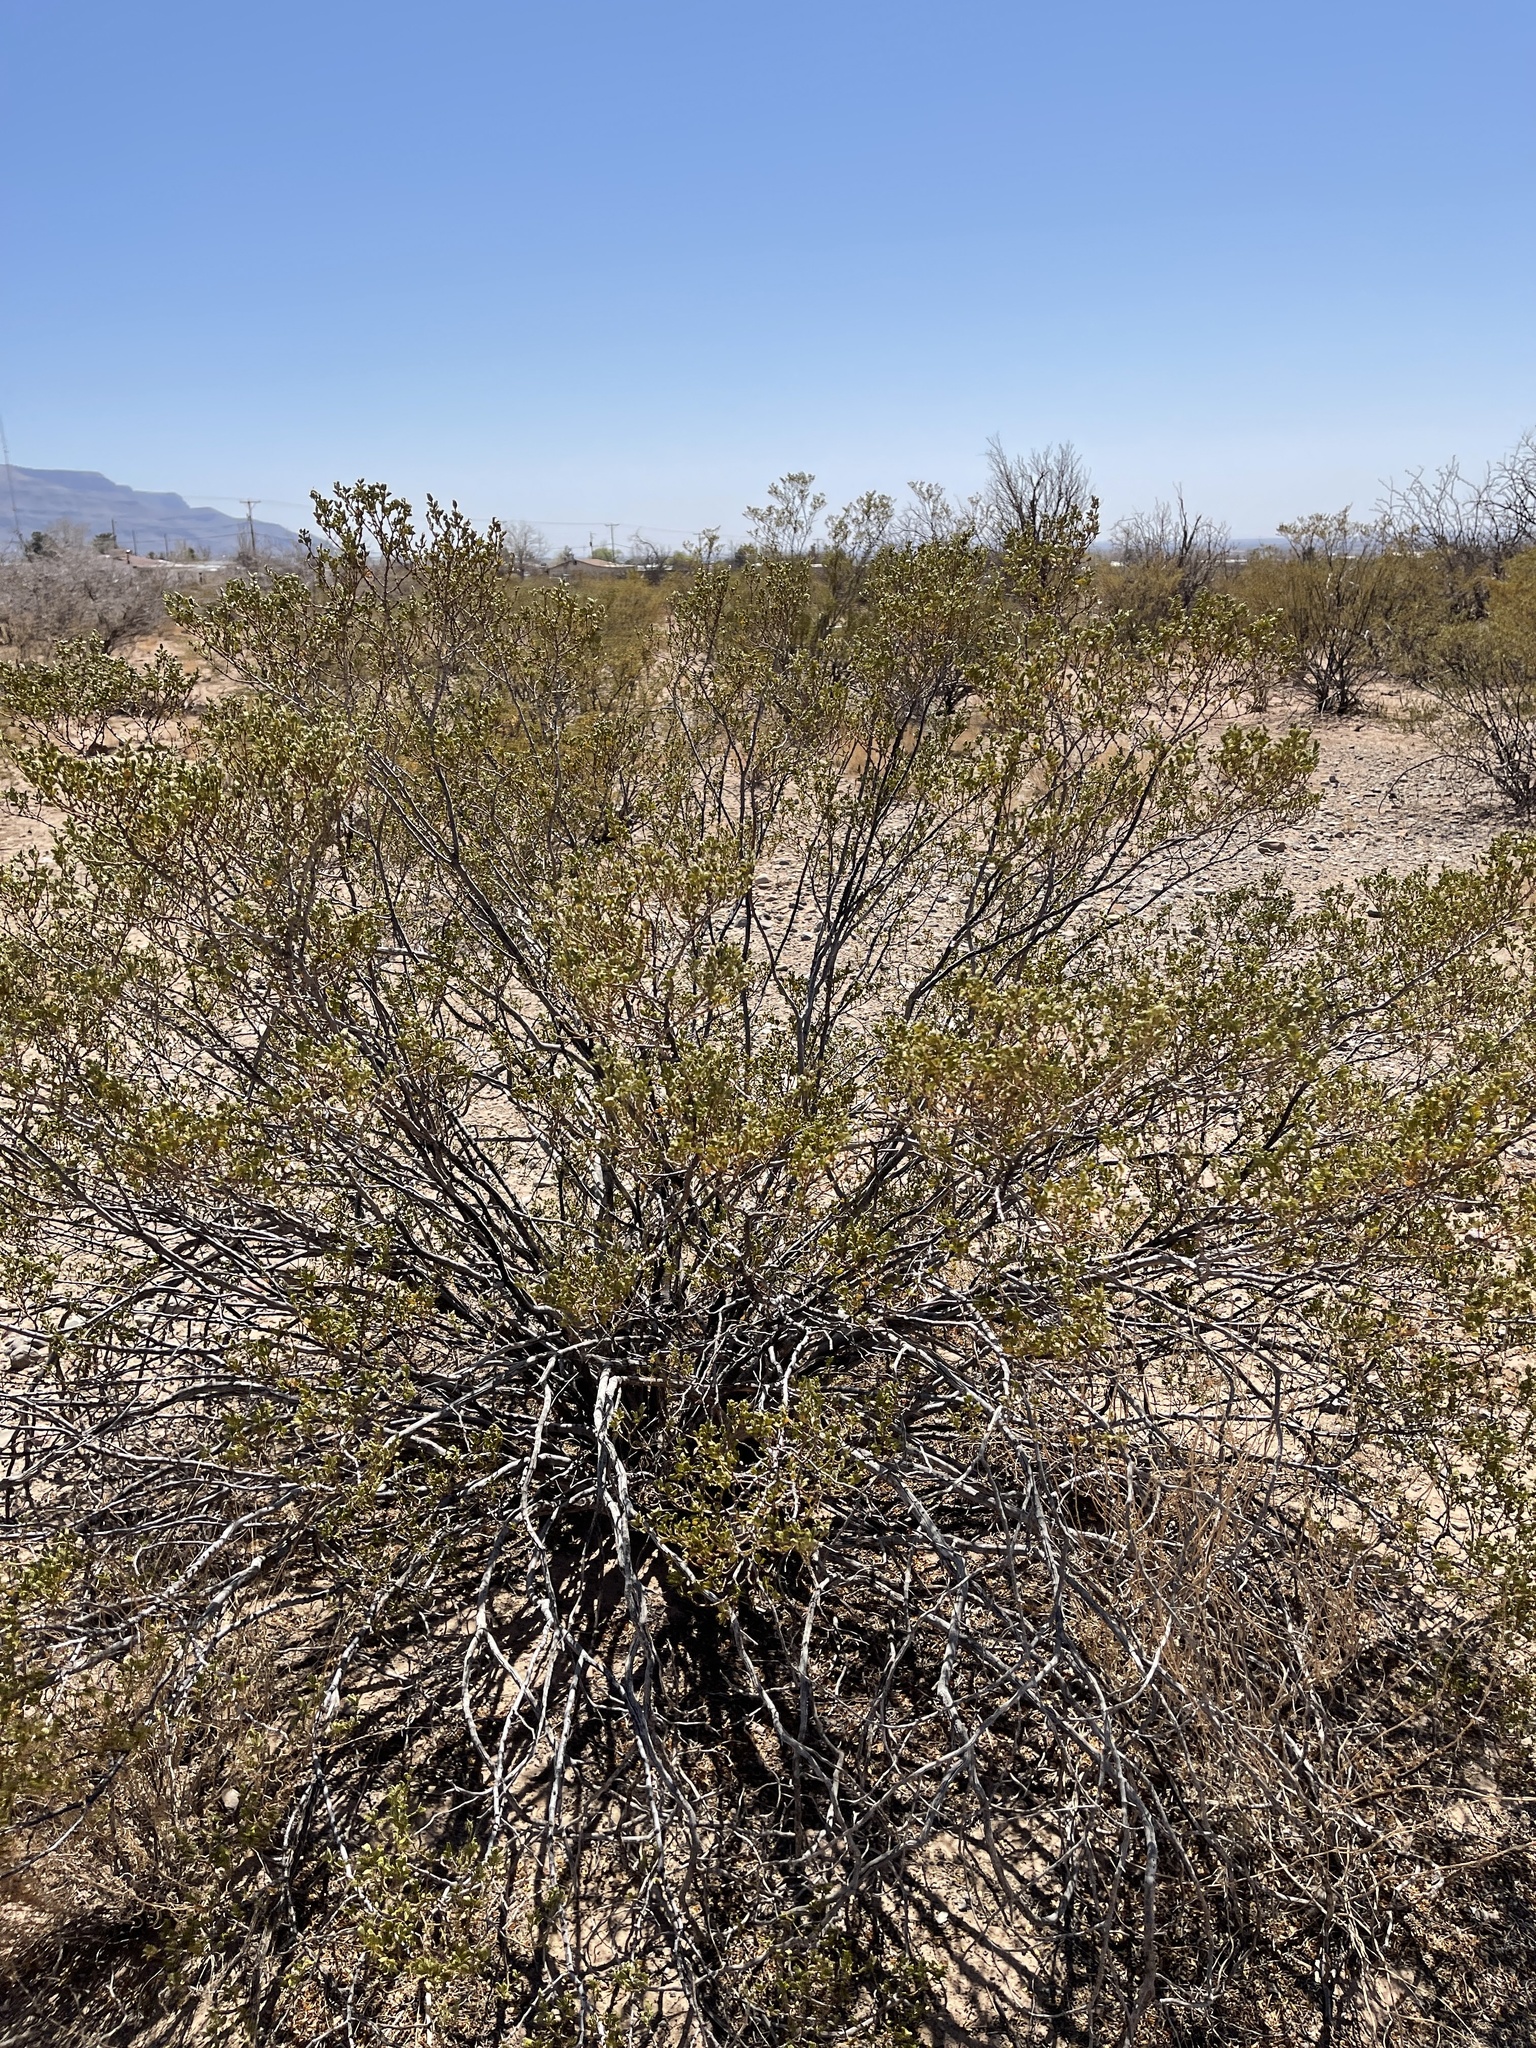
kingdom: Plantae
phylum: Tracheophyta
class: Magnoliopsida
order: Zygophyllales
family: Zygophyllaceae
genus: Larrea
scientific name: Larrea tridentata
